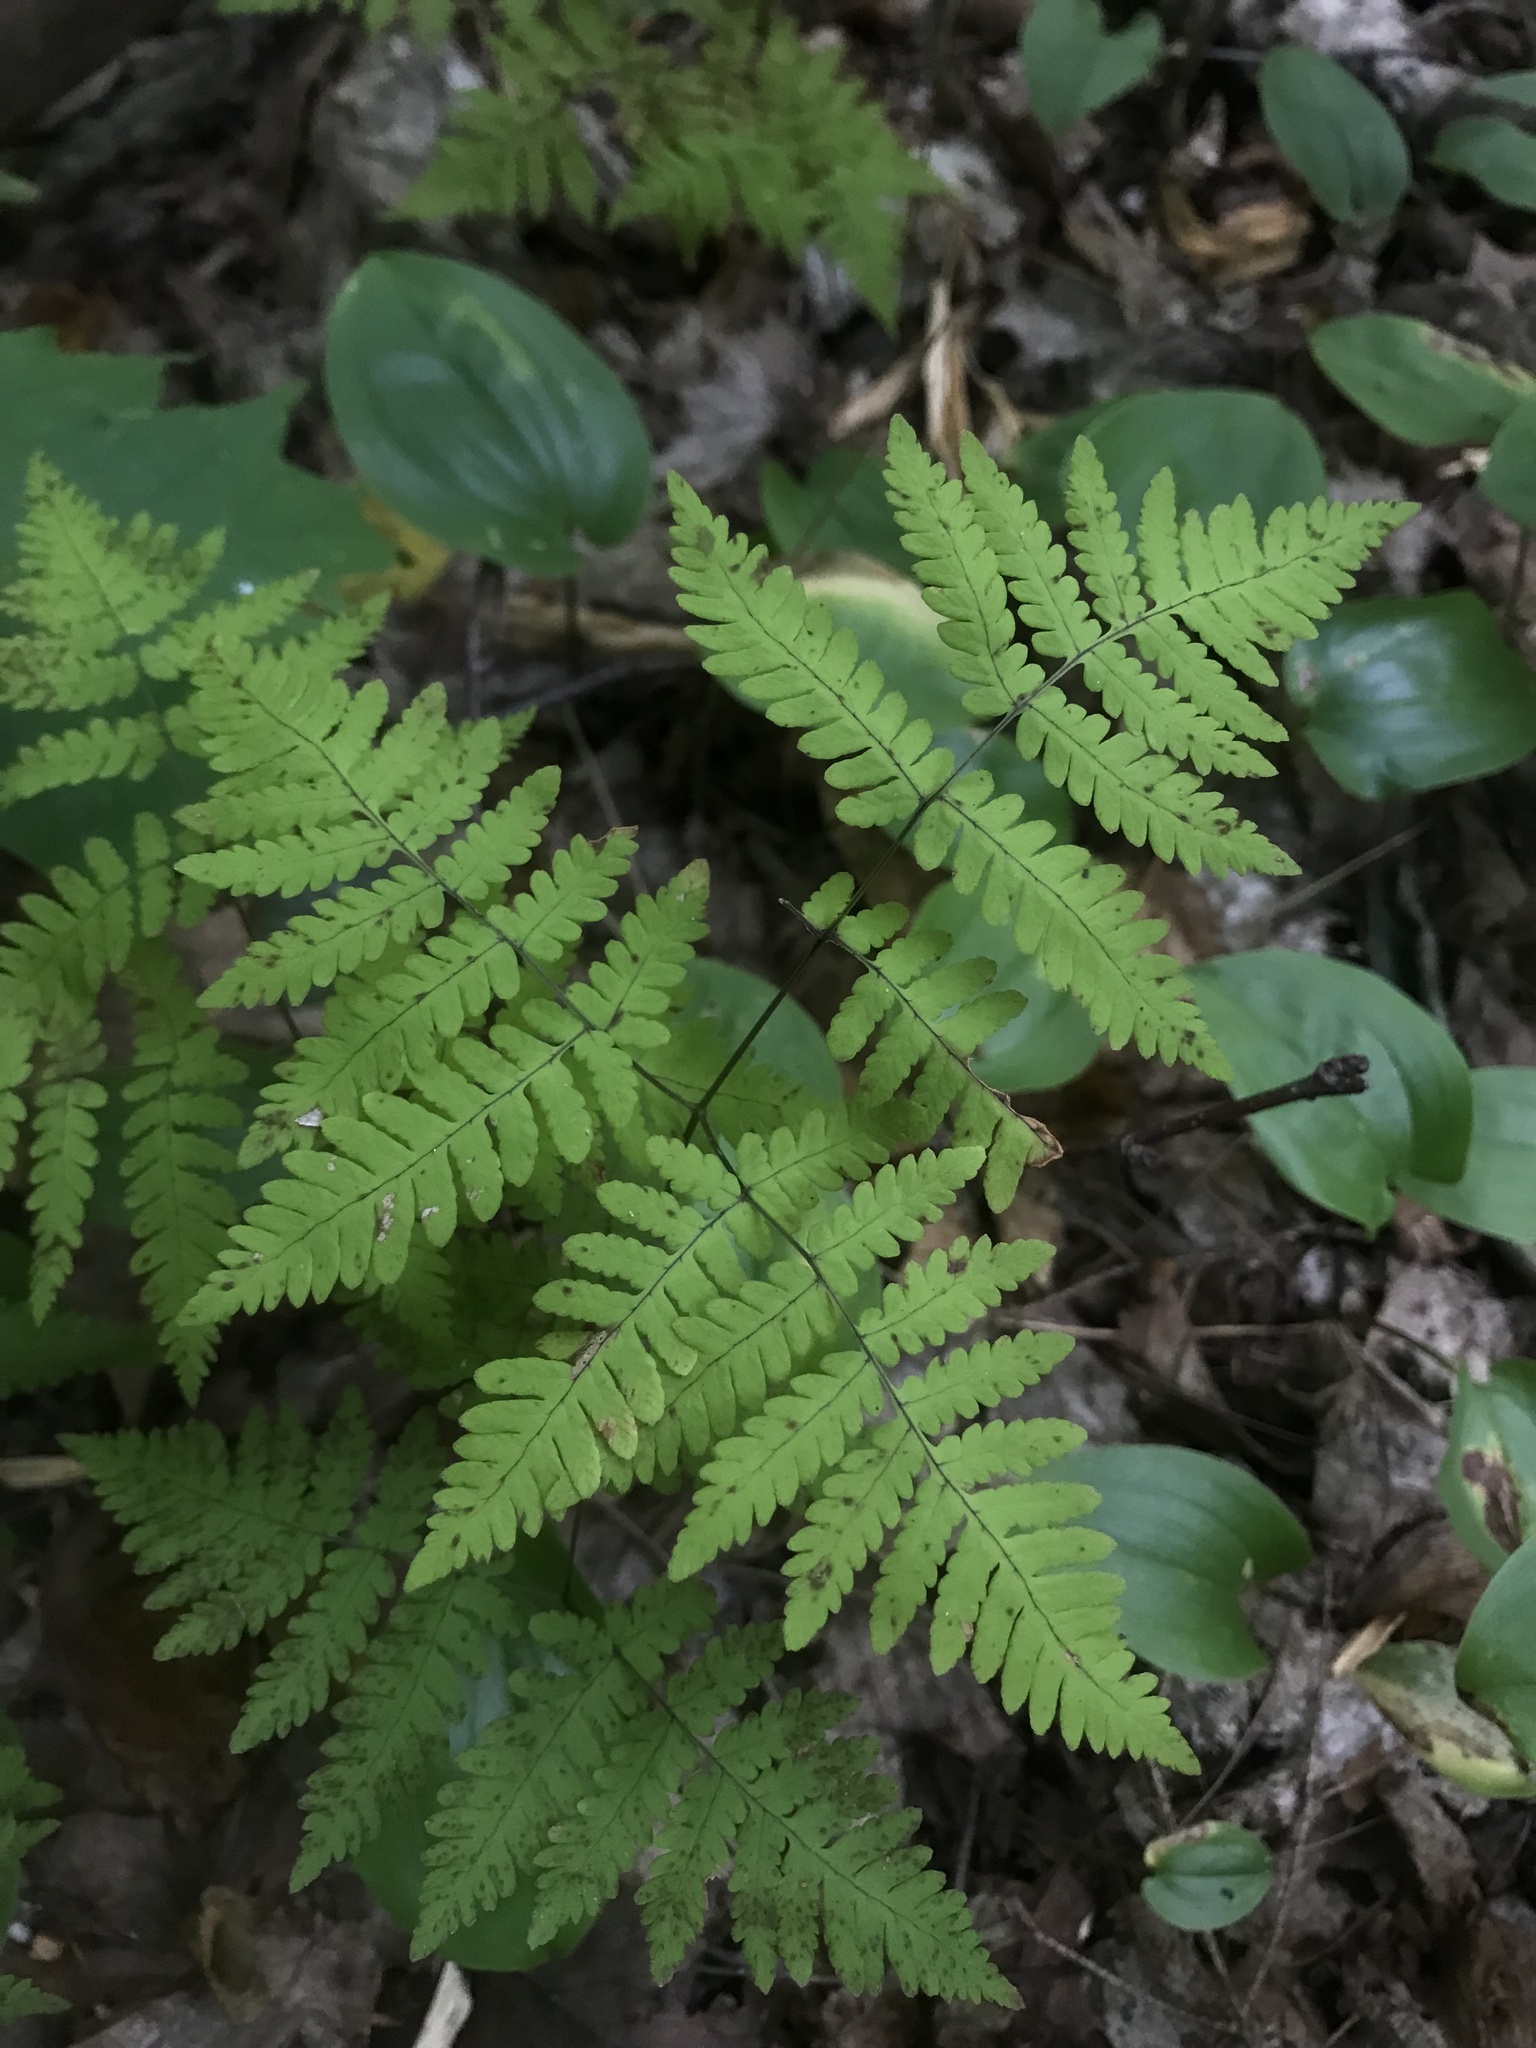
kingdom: Plantae
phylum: Tracheophyta
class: Polypodiopsida
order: Polypodiales
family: Cystopteridaceae
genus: Gymnocarpium
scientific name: Gymnocarpium dryopteris
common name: Oak fern
